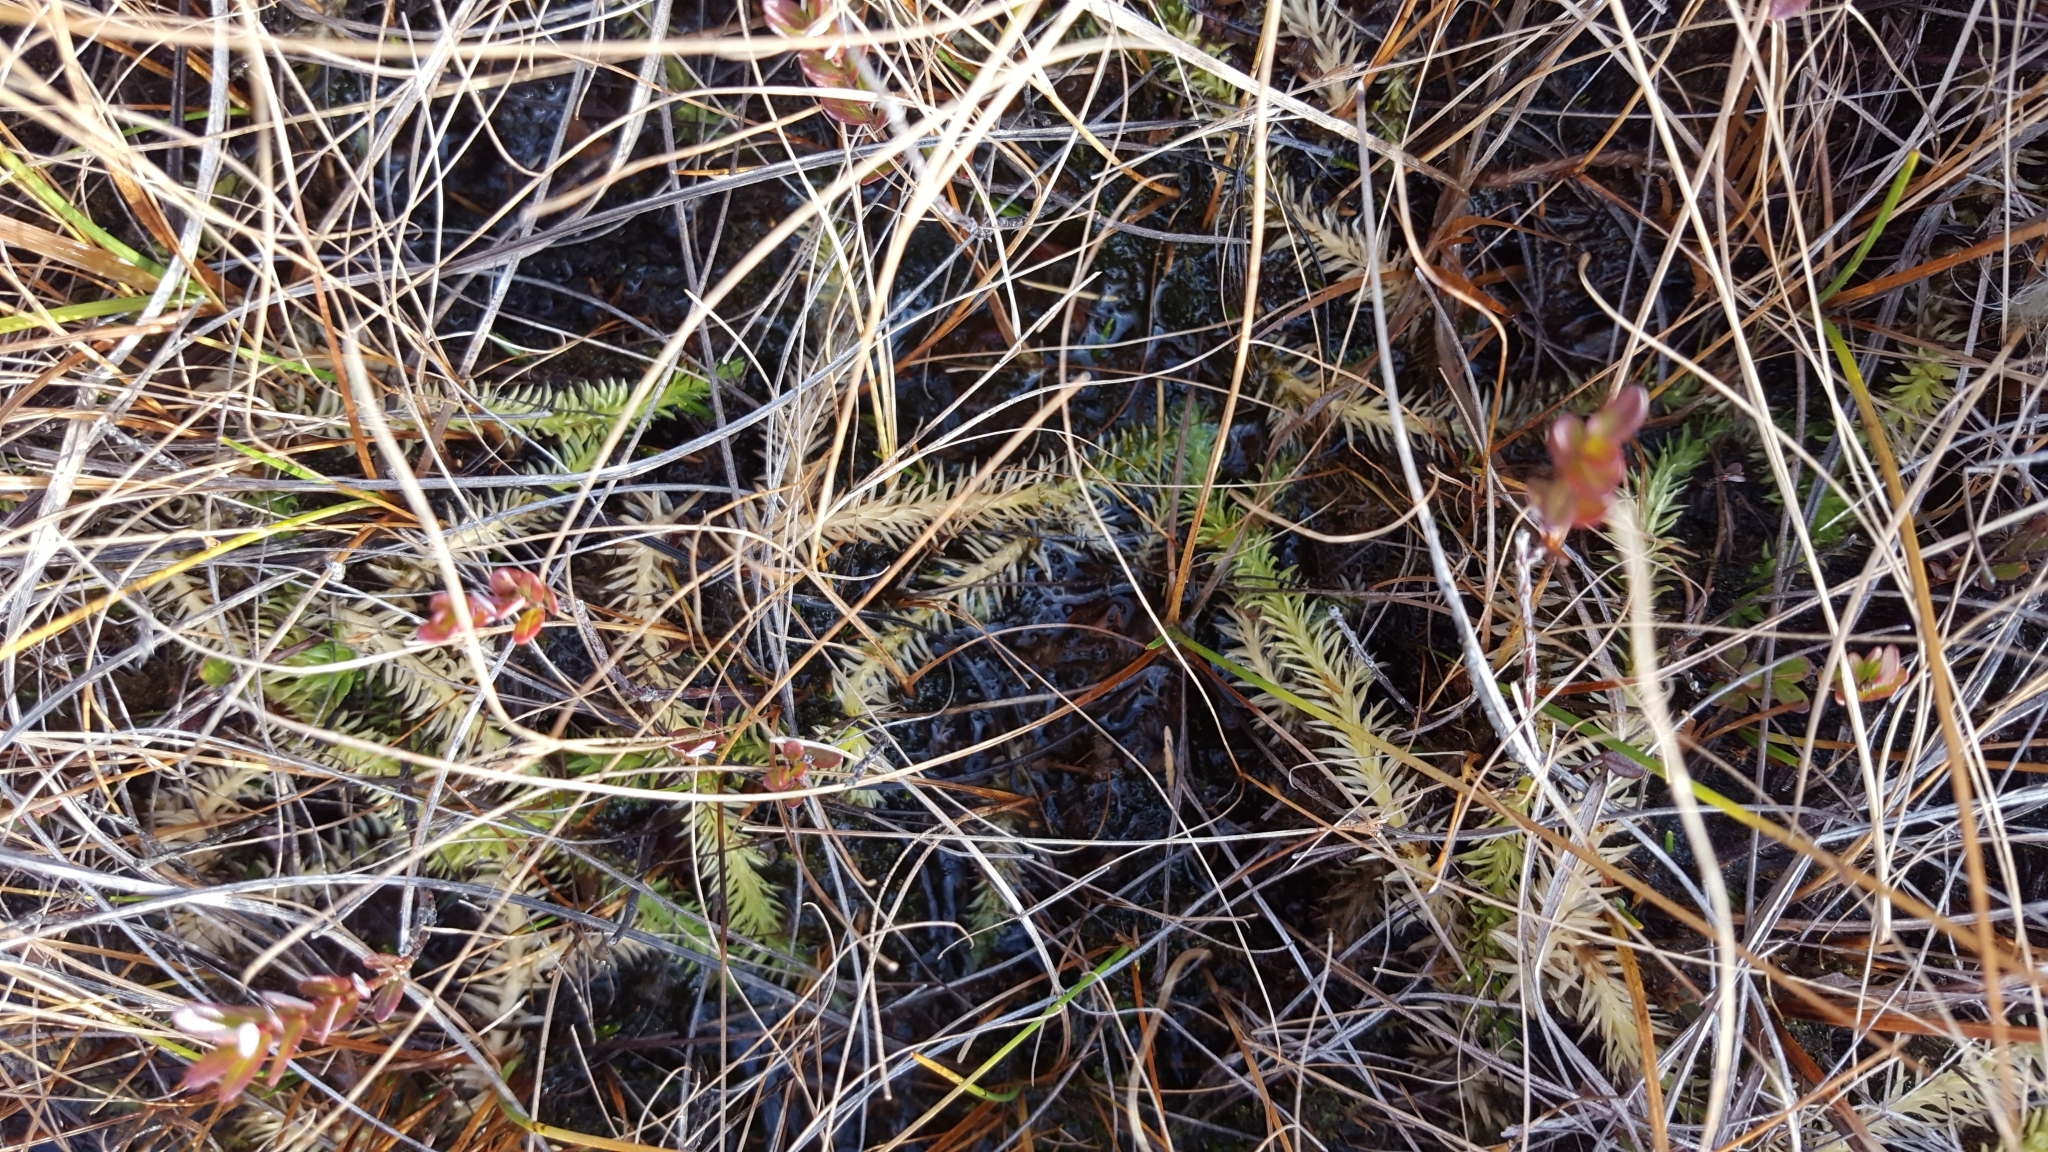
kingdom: Plantae
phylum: Tracheophyta
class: Lycopodiopsida
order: Lycopodiales
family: Lycopodiaceae
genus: Lycopodiella
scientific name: Lycopodiella inundata
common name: Marsh clubmoss
